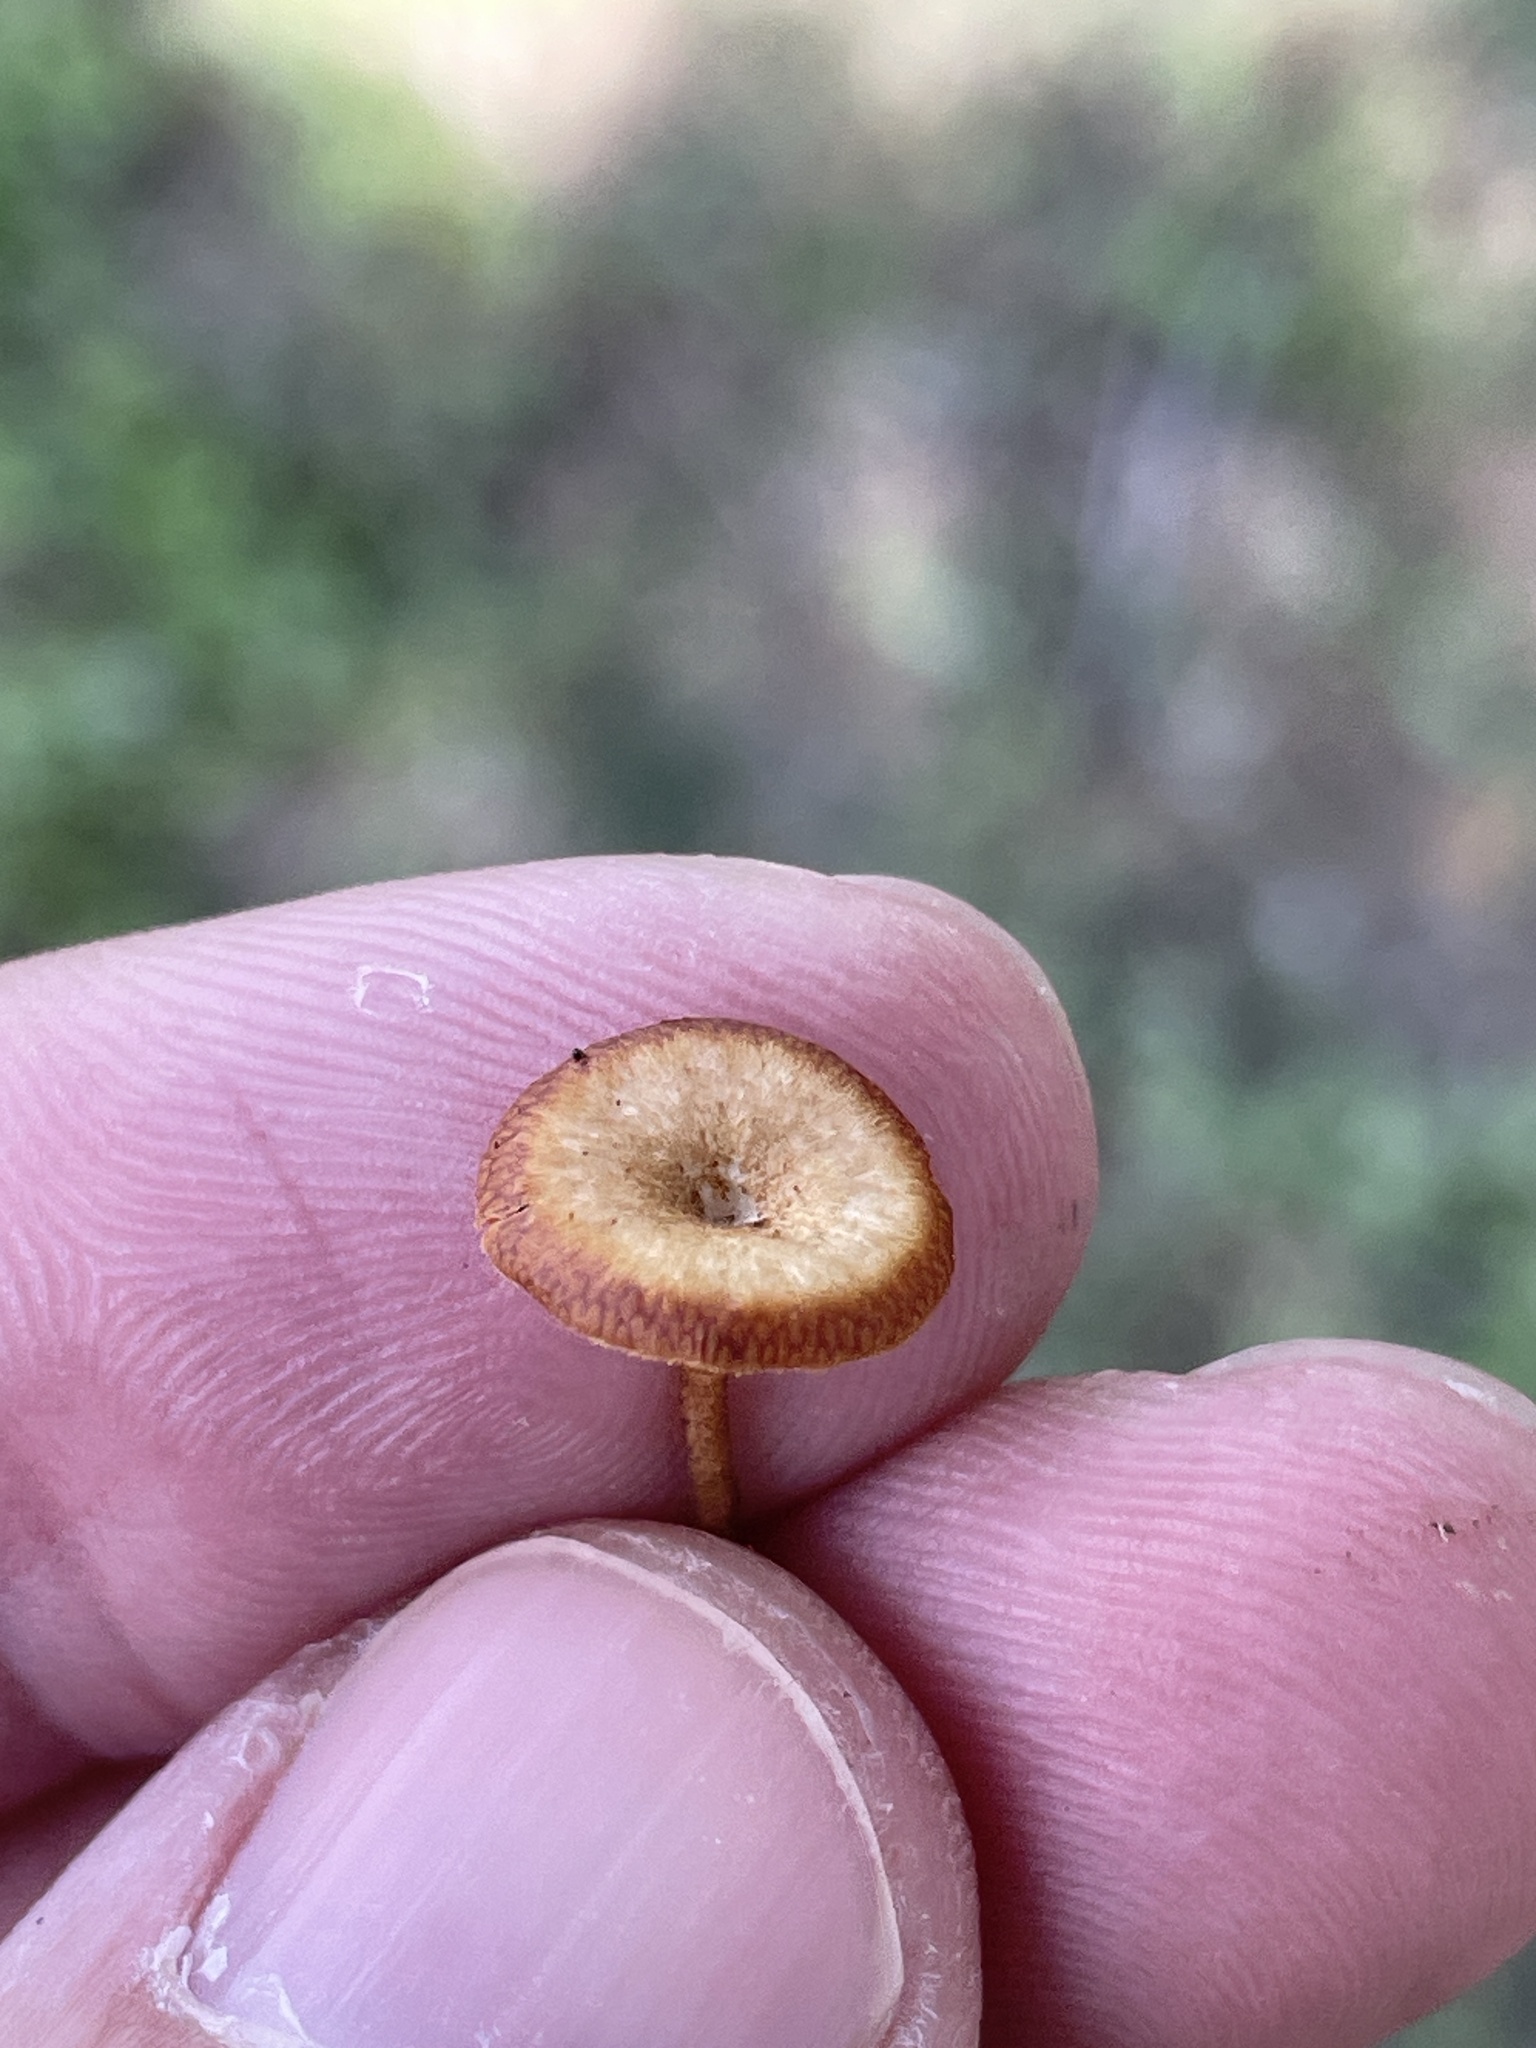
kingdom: Fungi
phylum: Basidiomycota
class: Agaricomycetes
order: Polyporales
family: Polyporaceae
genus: Lentinus
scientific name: Lentinus arcularius
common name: Spring polypore
